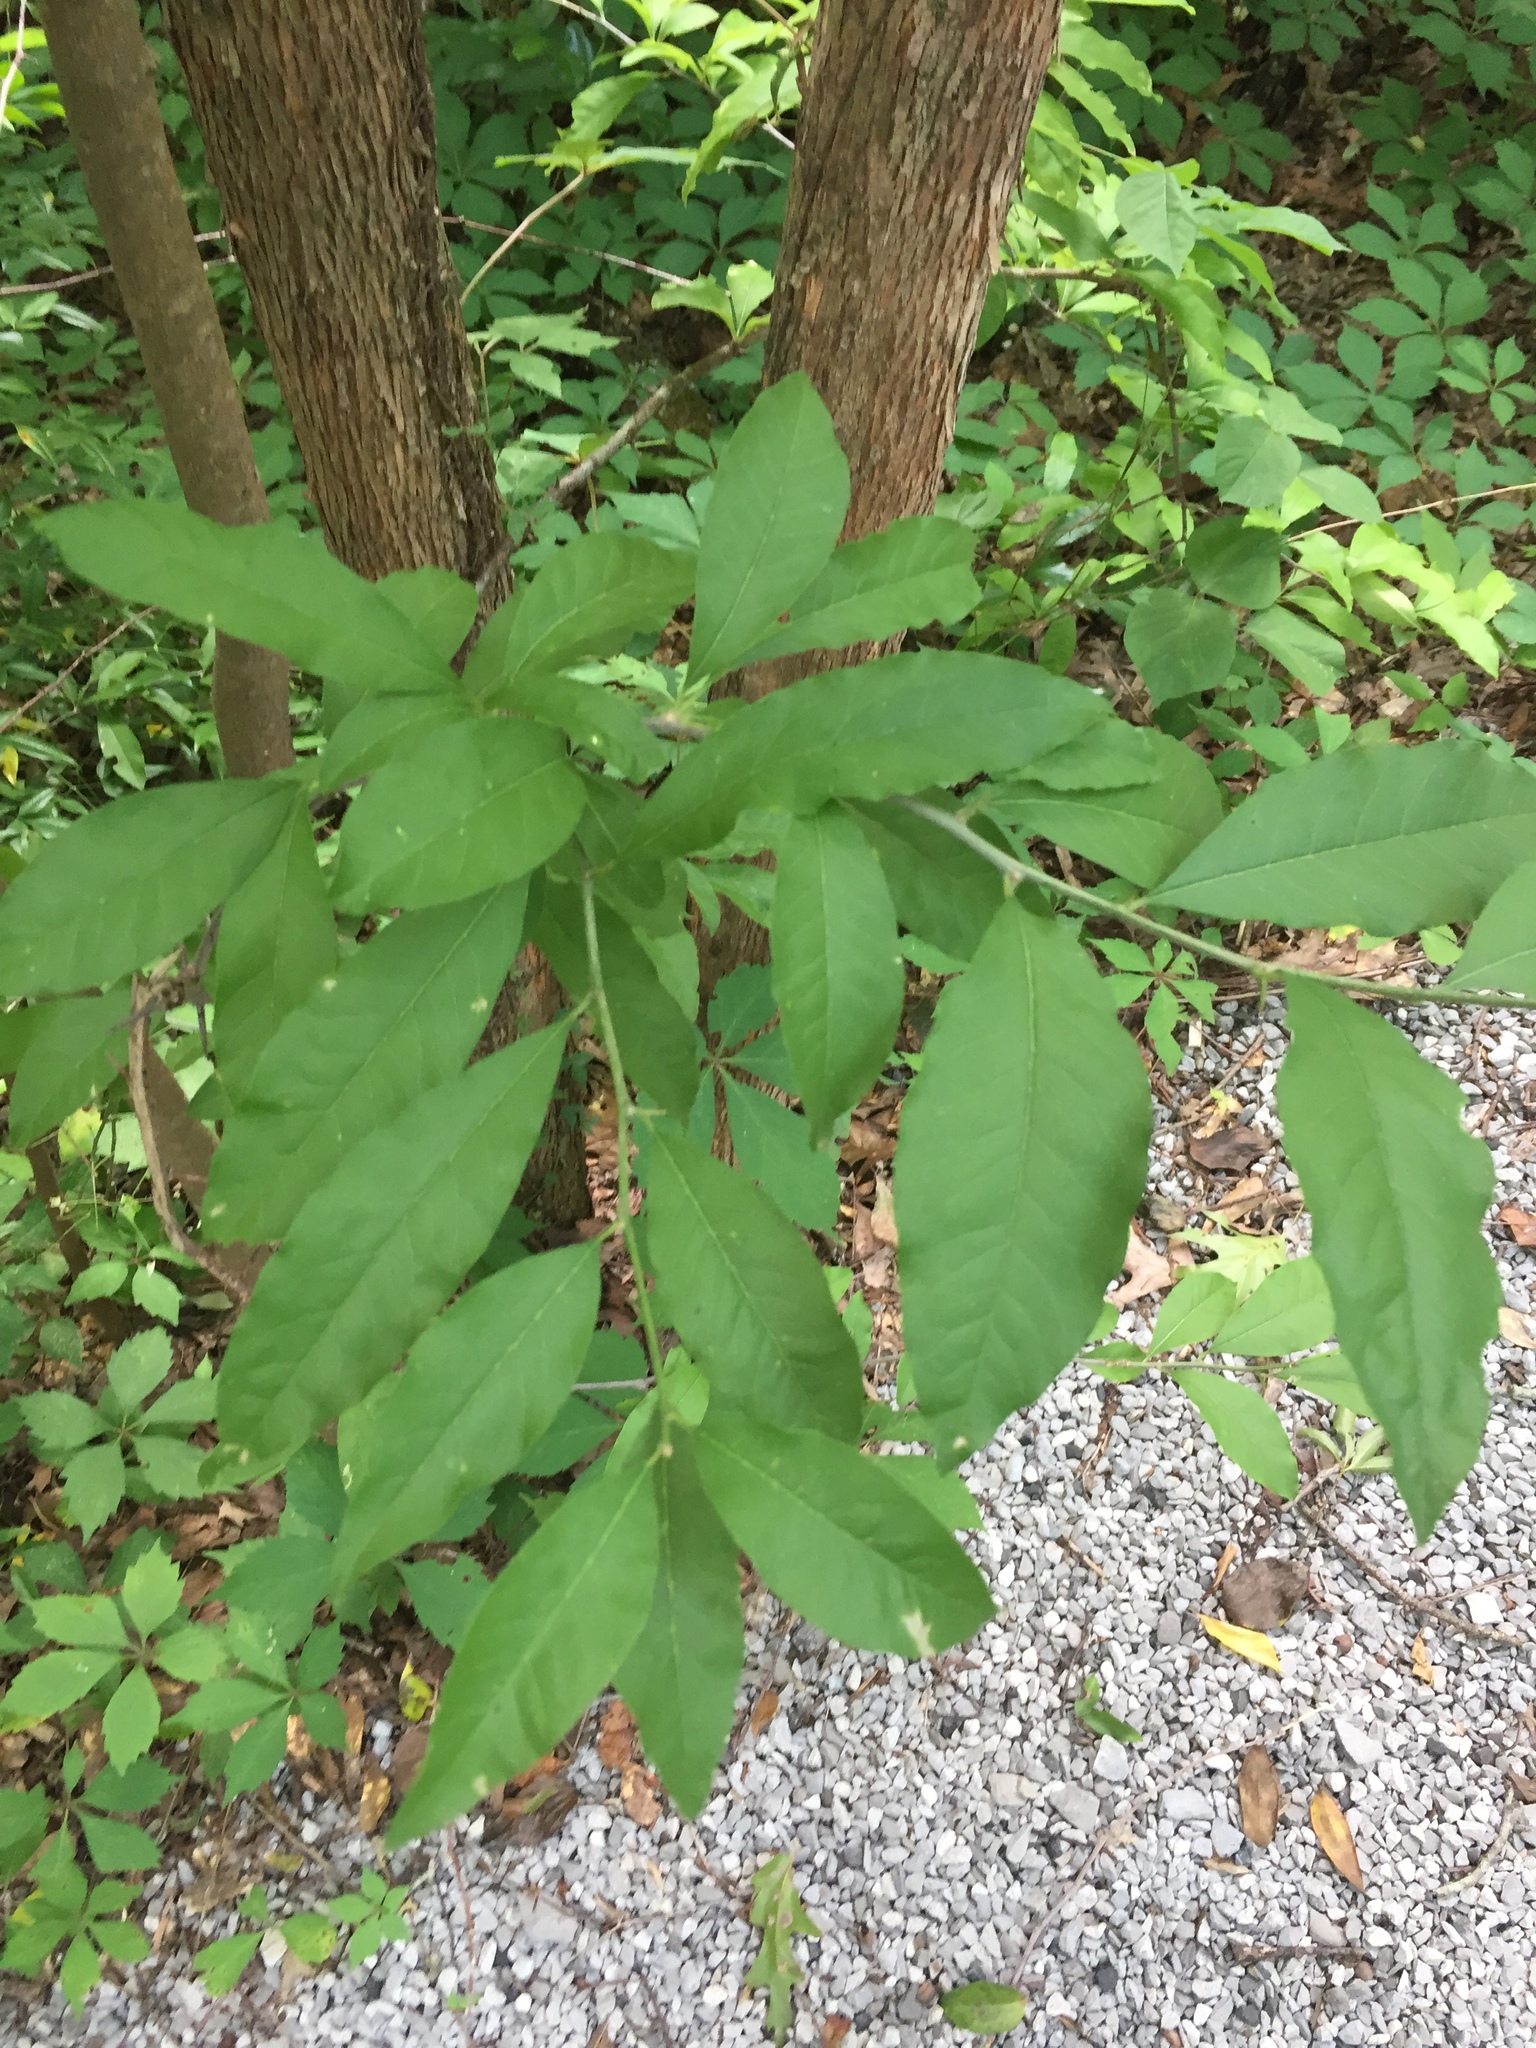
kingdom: Plantae
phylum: Tracheophyta
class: Magnoliopsida
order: Ericales
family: Sapotaceae
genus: Sideroxylon
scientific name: Sideroxylon lycioides
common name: Buckthorn bumelia
